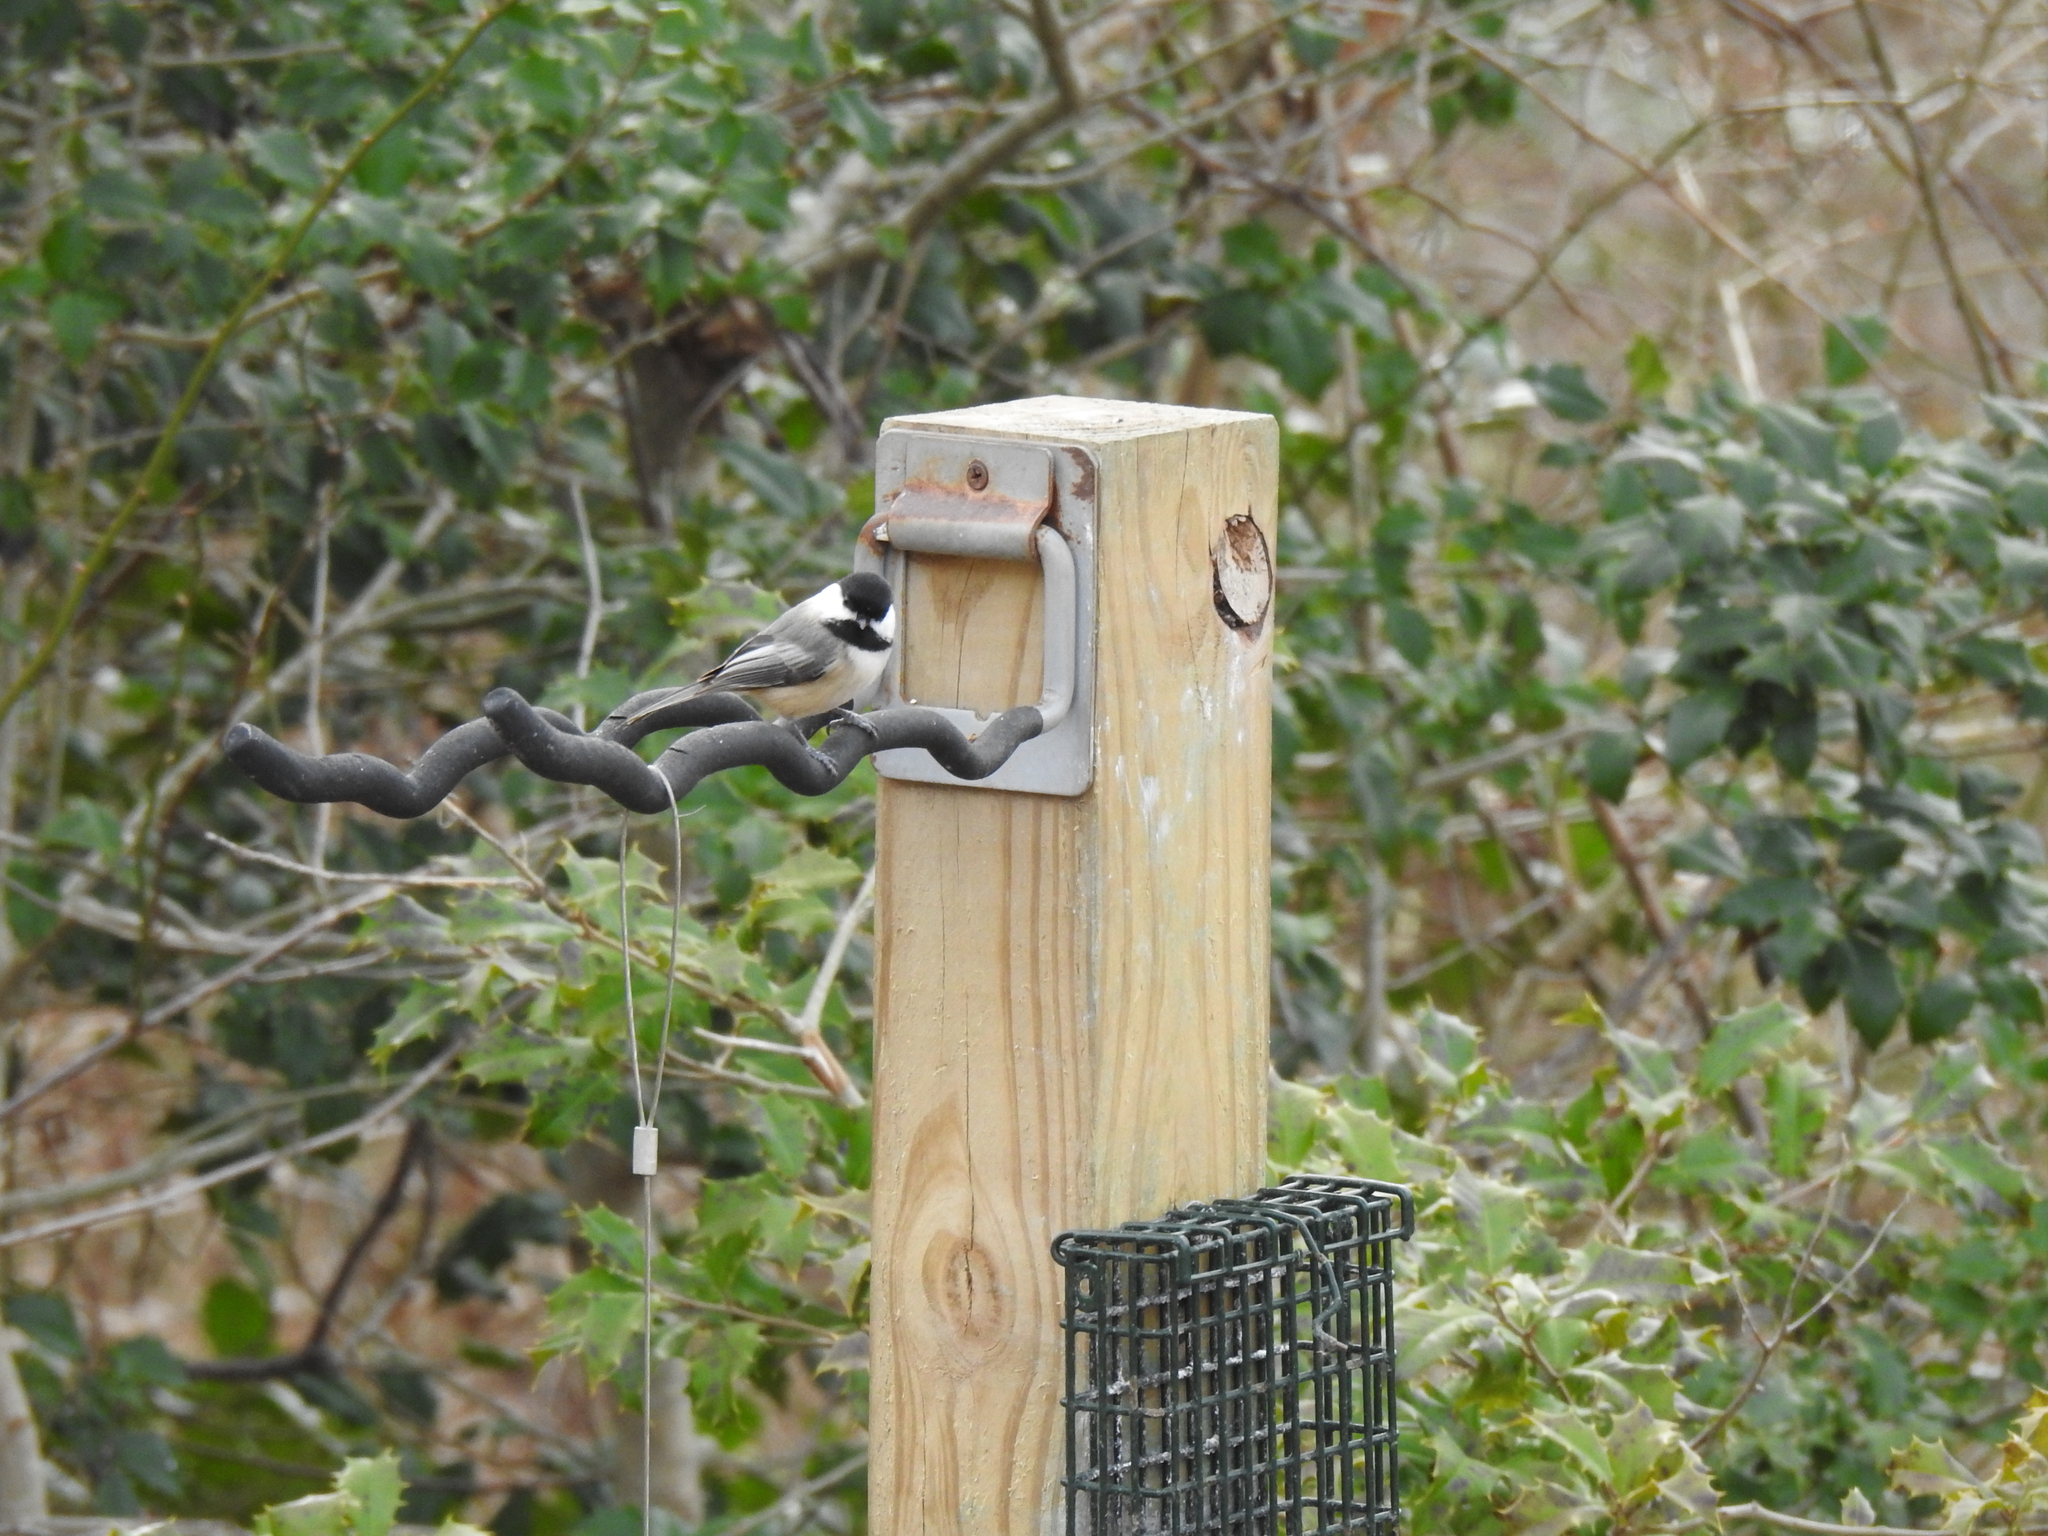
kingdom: Animalia
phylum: Chordata
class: Aves
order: Passeriformes
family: Paridae
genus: Poecile
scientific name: Poecile atricapillus
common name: Black-capped chickadee
